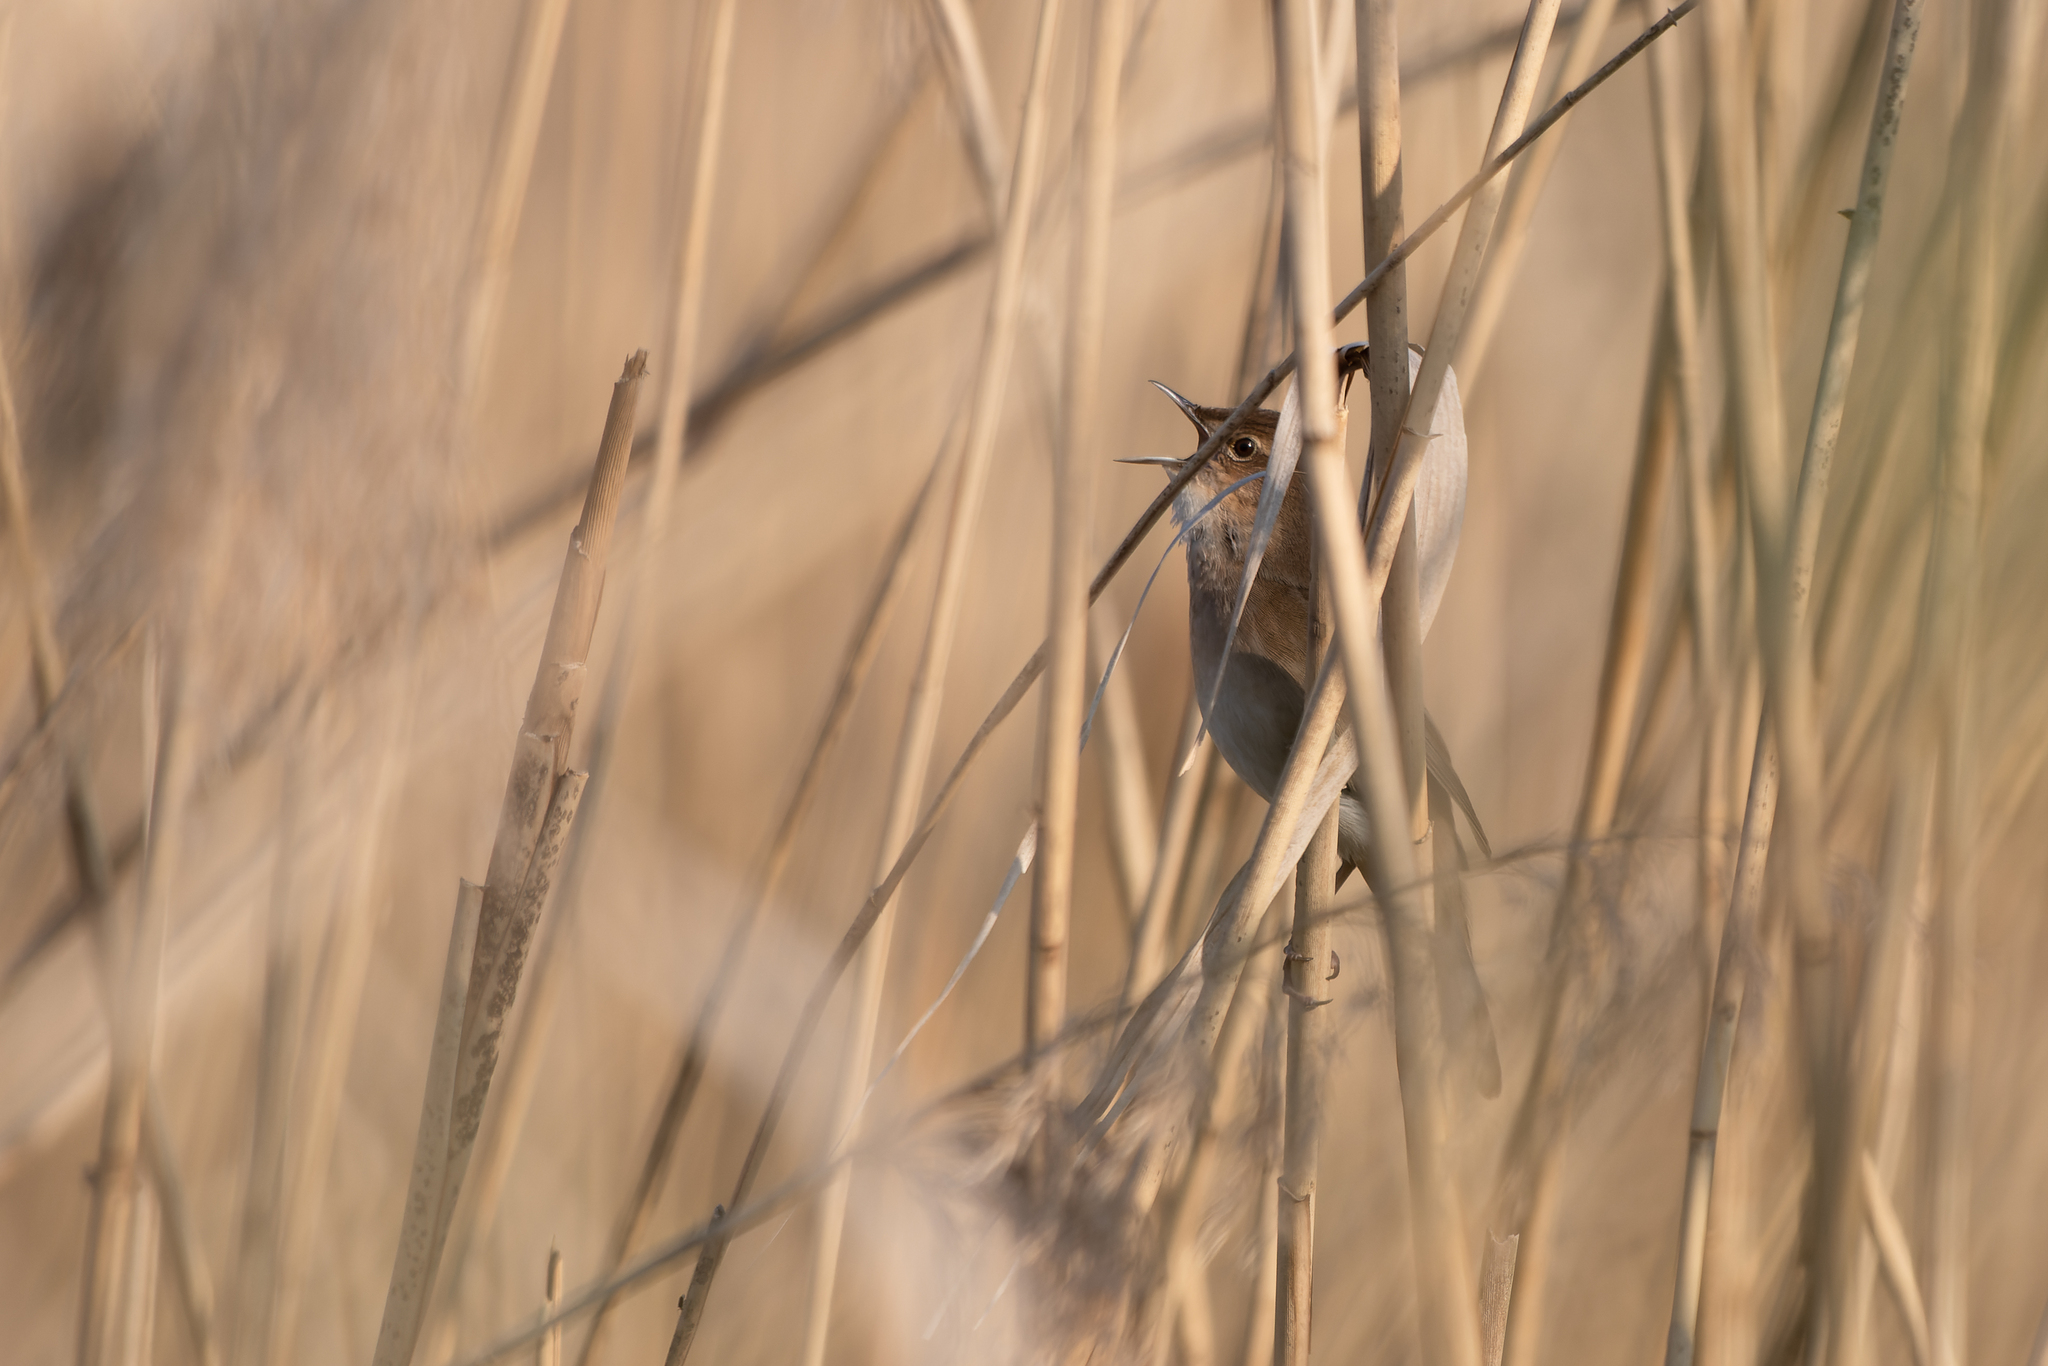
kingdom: Animalia
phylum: Chordata
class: Aves
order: Passeriformes
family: Locustellidae
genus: Locustella
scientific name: Locustella luscinioides
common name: Savi's warbler
